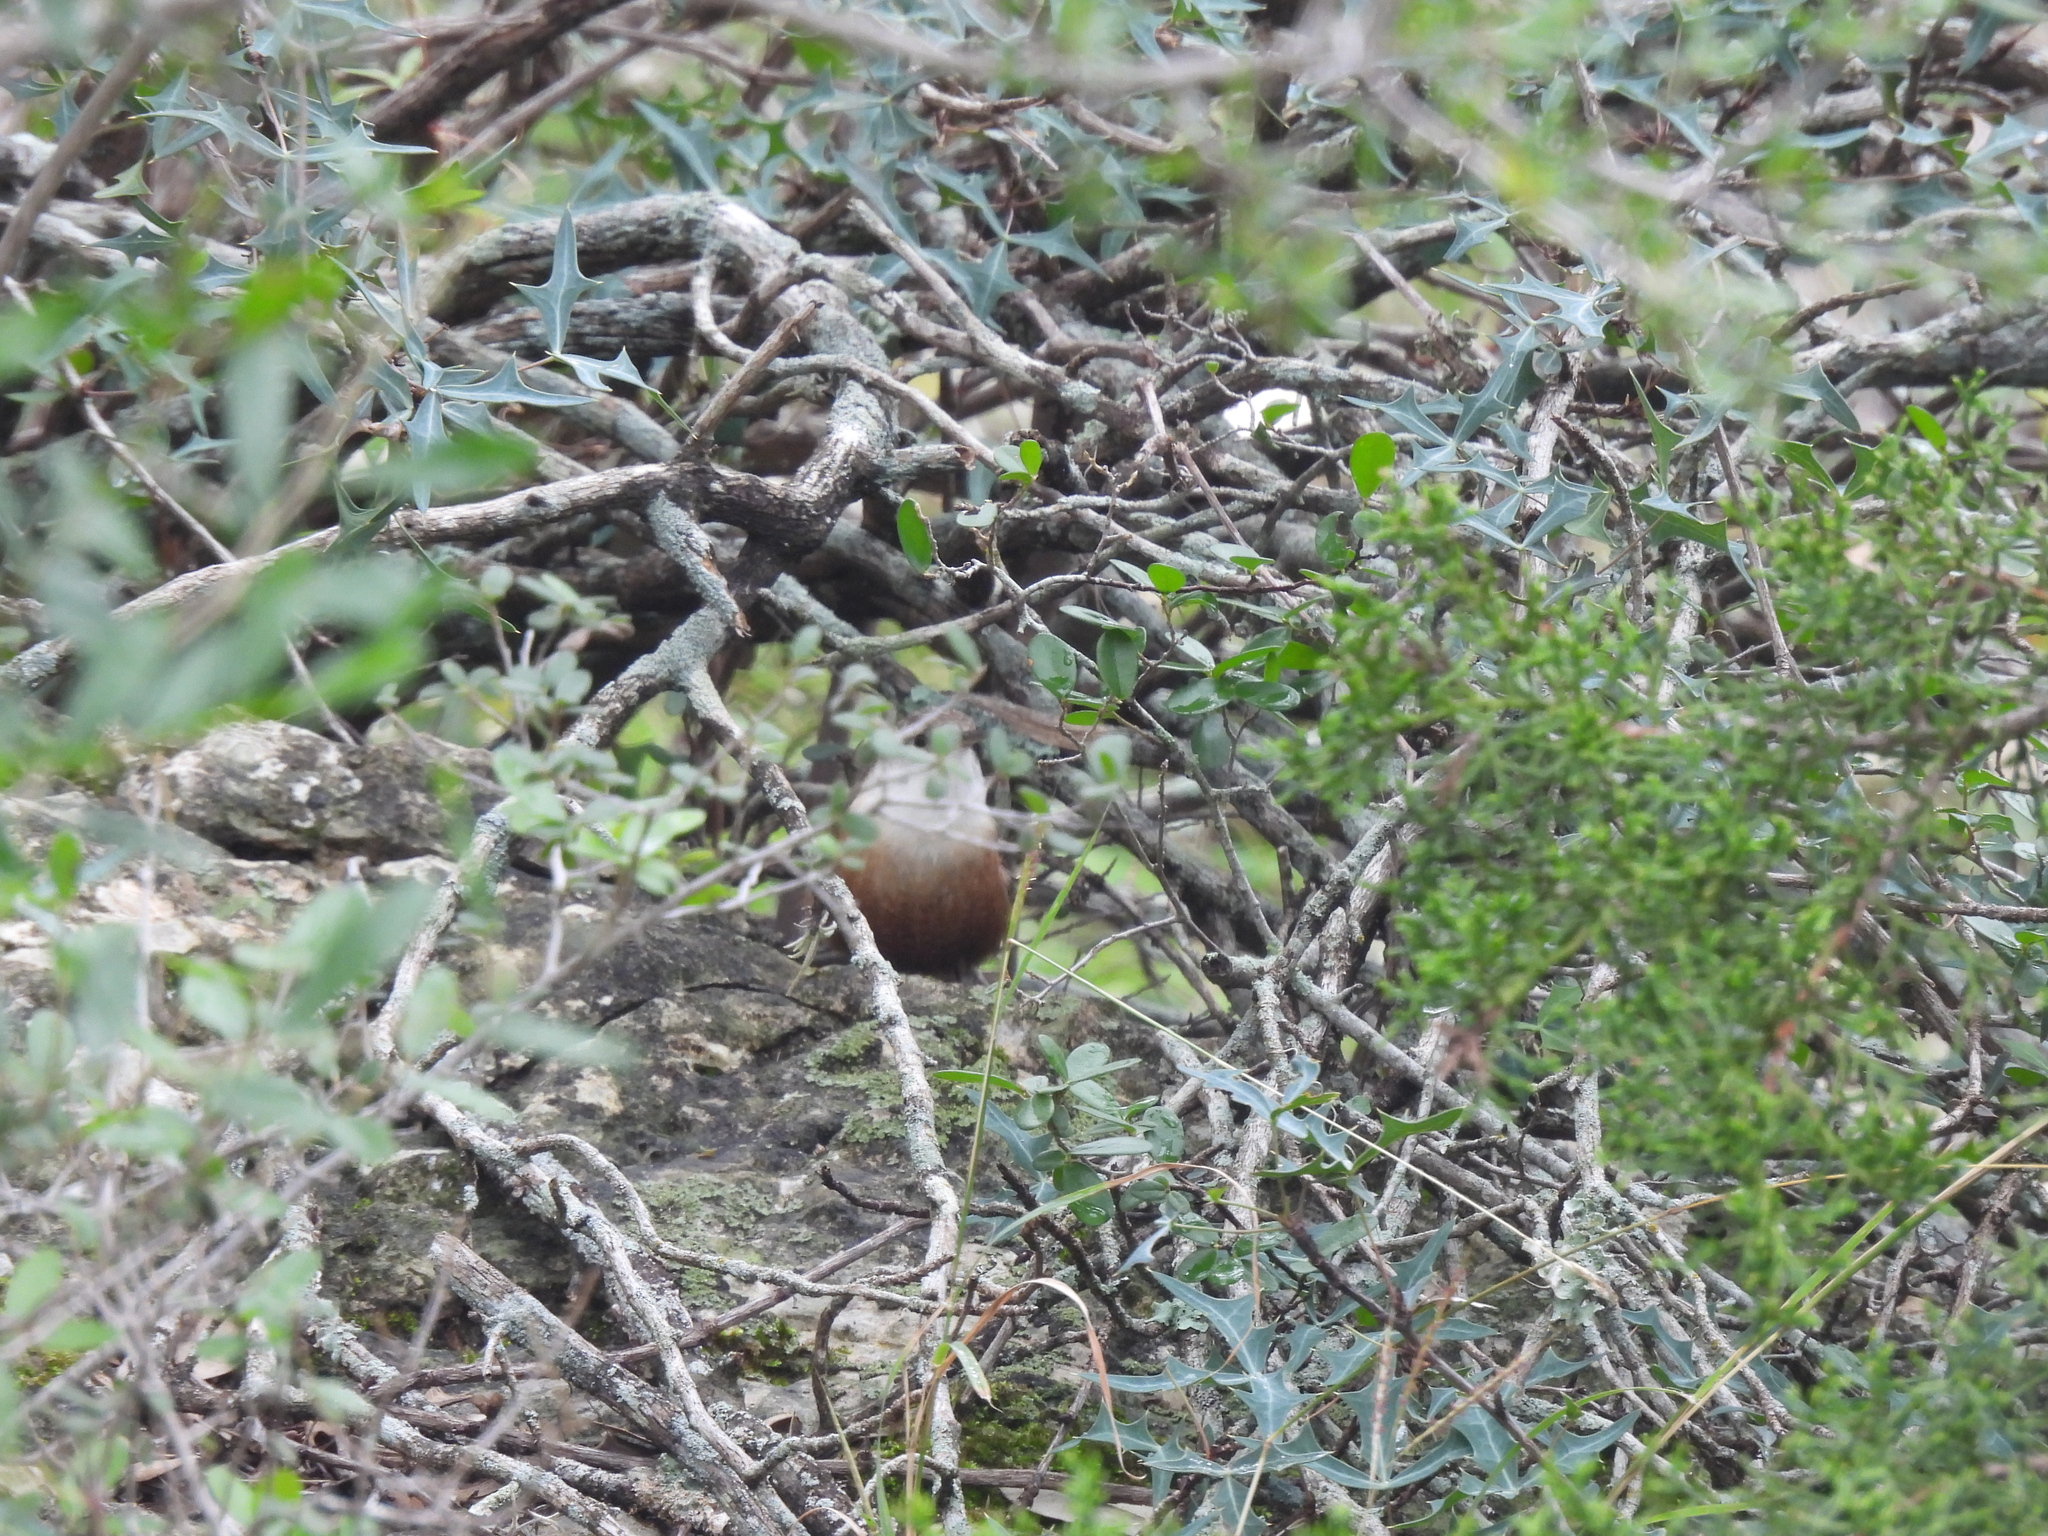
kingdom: Animalia
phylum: Chordata
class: Aves
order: Passeriformes
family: Troglodytidae
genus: Catherpes
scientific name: Catherpes mexicanus
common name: Canyon wren
